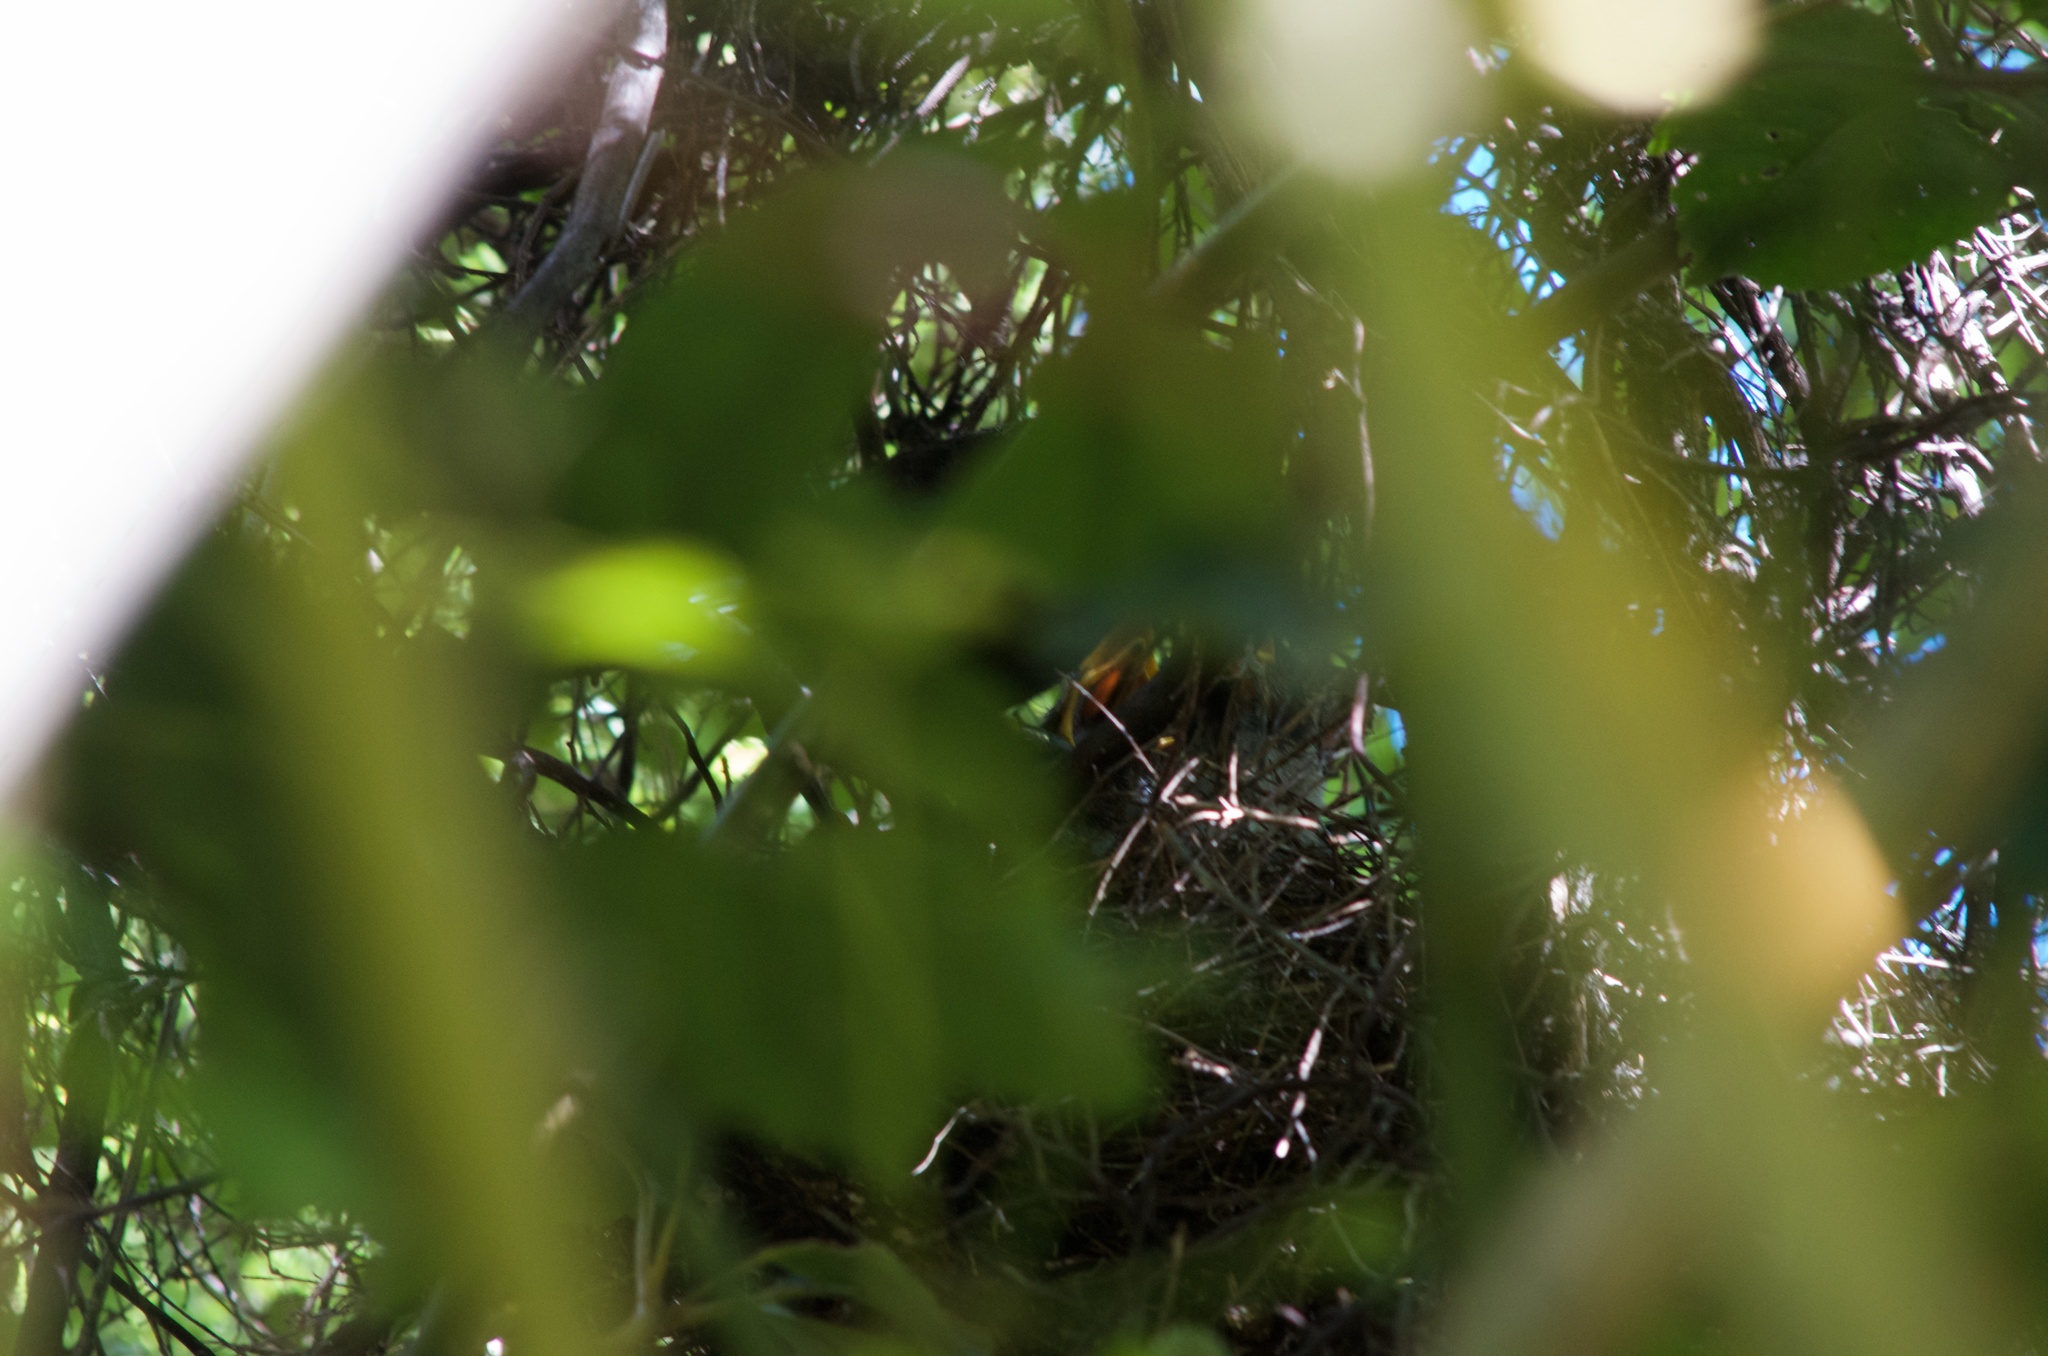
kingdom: Animalia
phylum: Chordata
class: Aves
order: Passeriformes
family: Meliphagidae
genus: Prosthemadera
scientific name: Prosthemadera novaeseelandiae
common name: Tui
